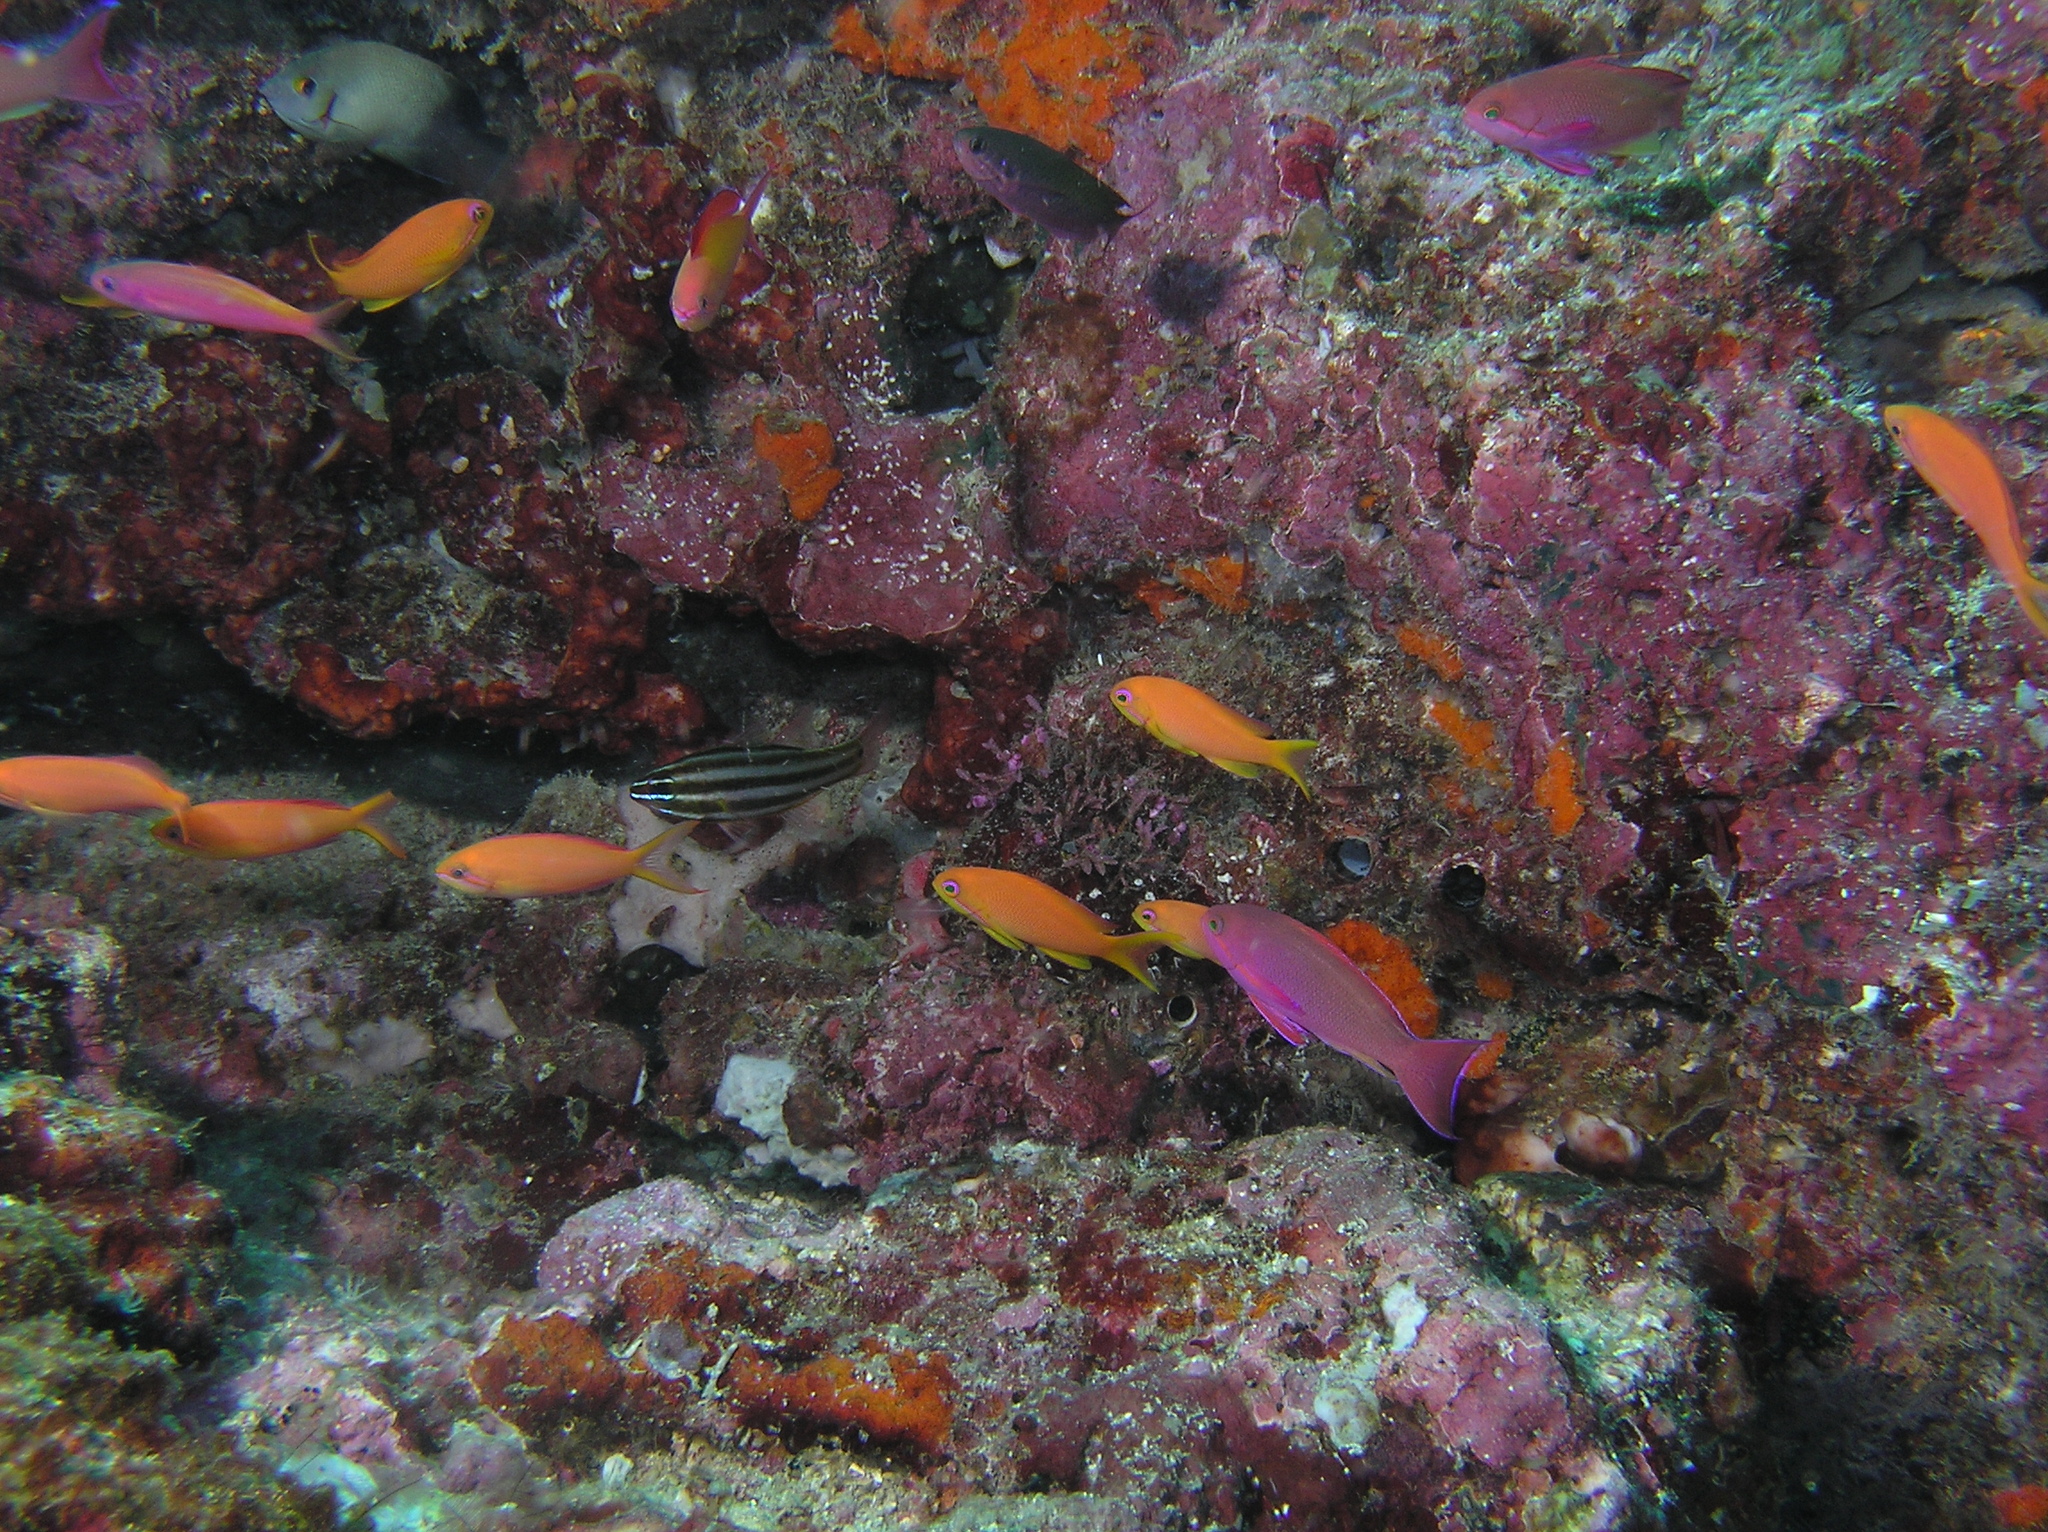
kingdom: Animalia
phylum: Chordata
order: Perciformes
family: Apogonidae
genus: Ostorhinchus
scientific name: Ostorhinchus angustatus
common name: Narrow-striped cardinalfish
